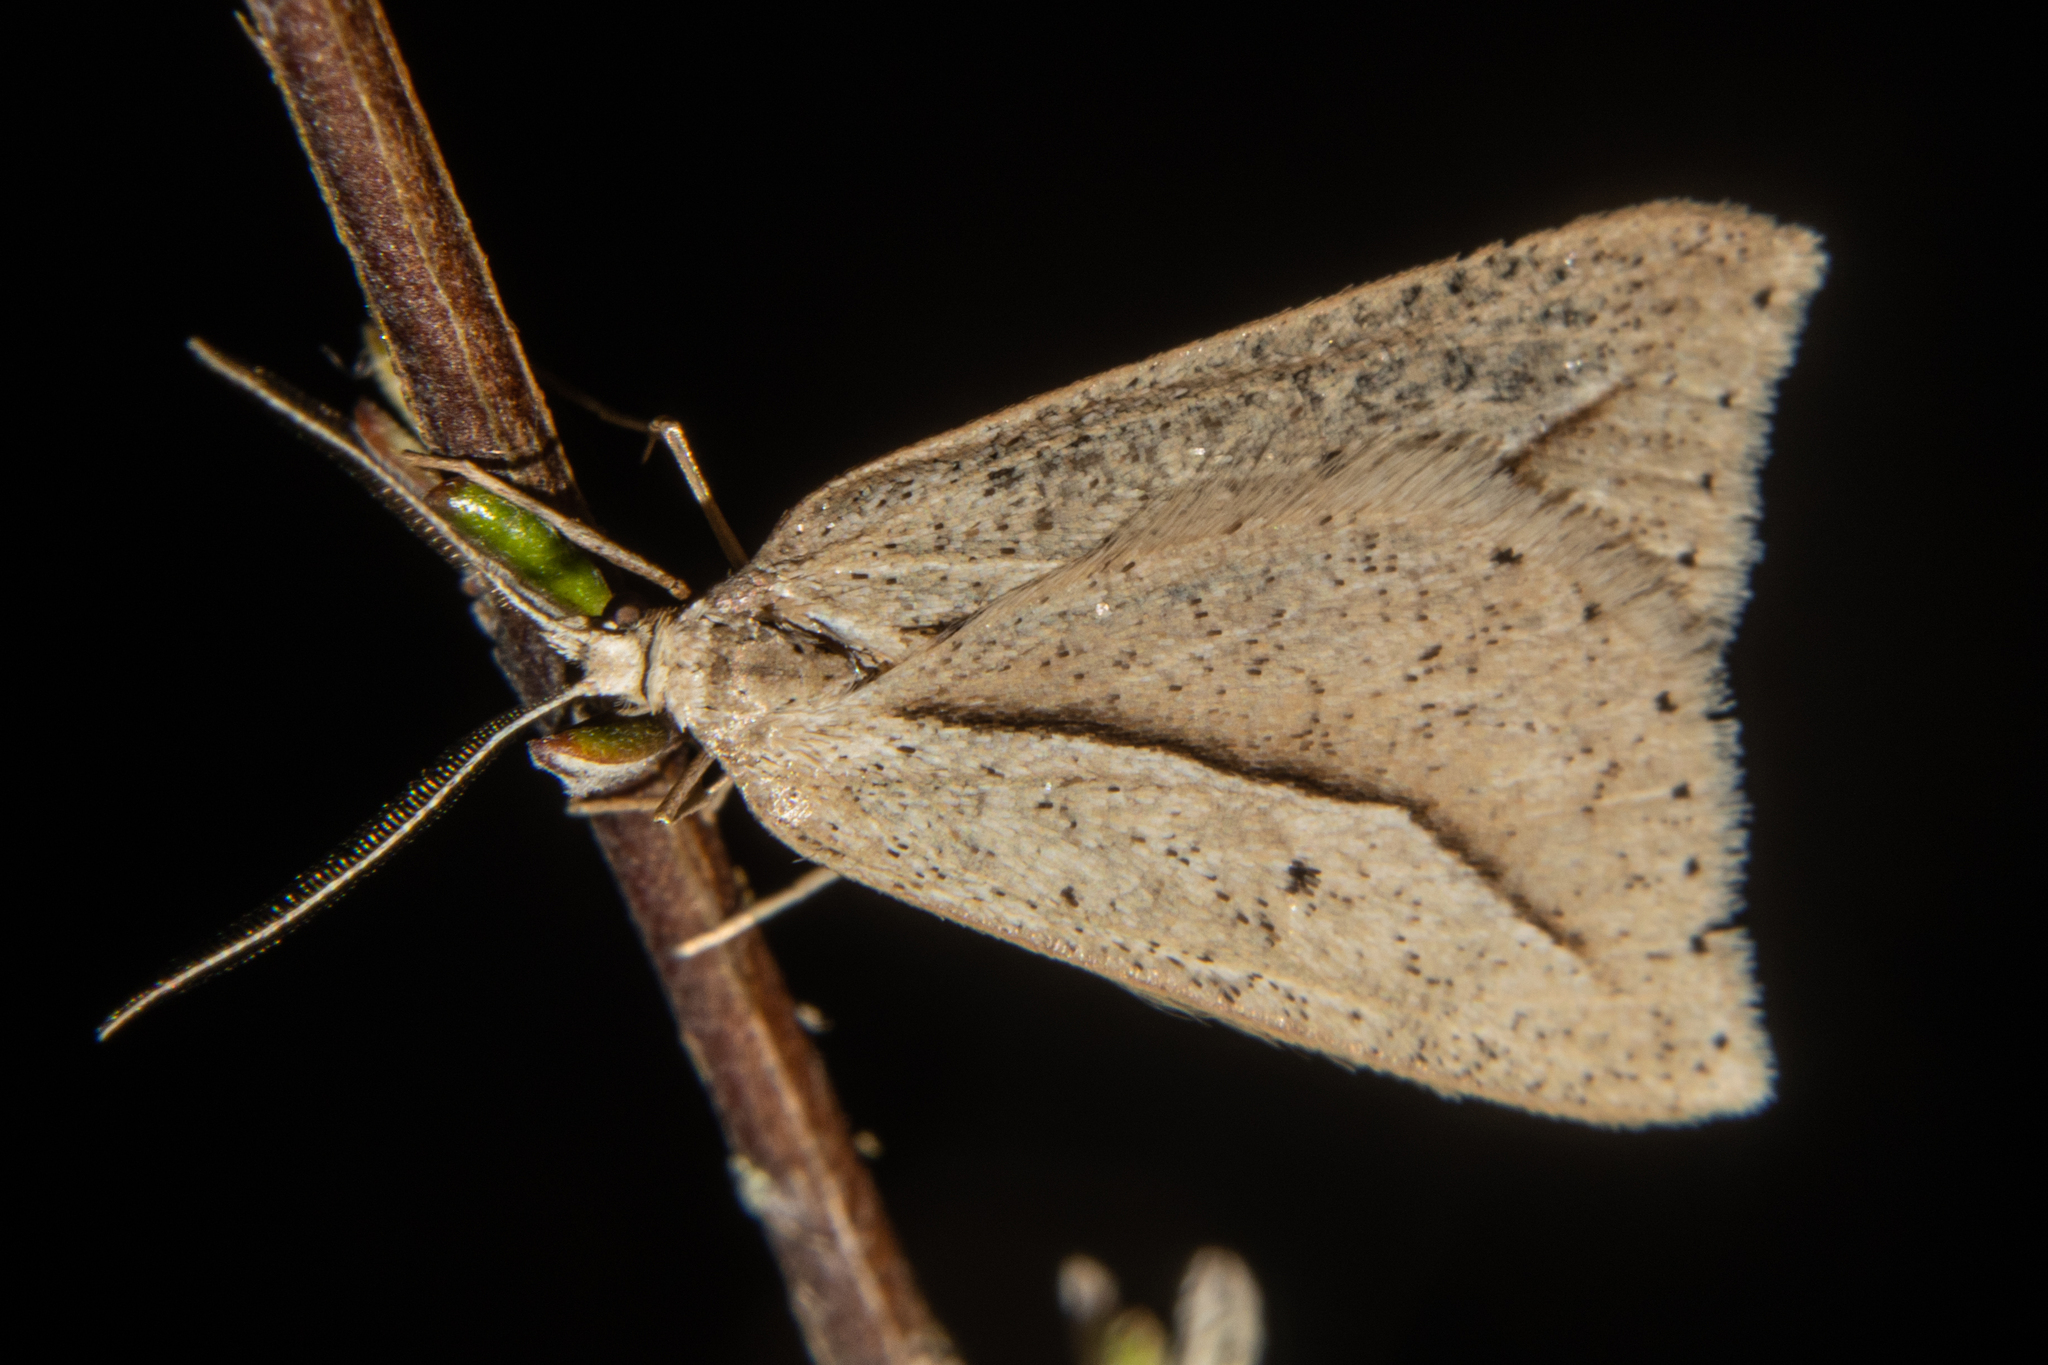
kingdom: Animalia
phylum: Arthropoda
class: Insecta
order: Lepidoptera
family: Geometridae
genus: Theoxena
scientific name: Theoxena scissaria
